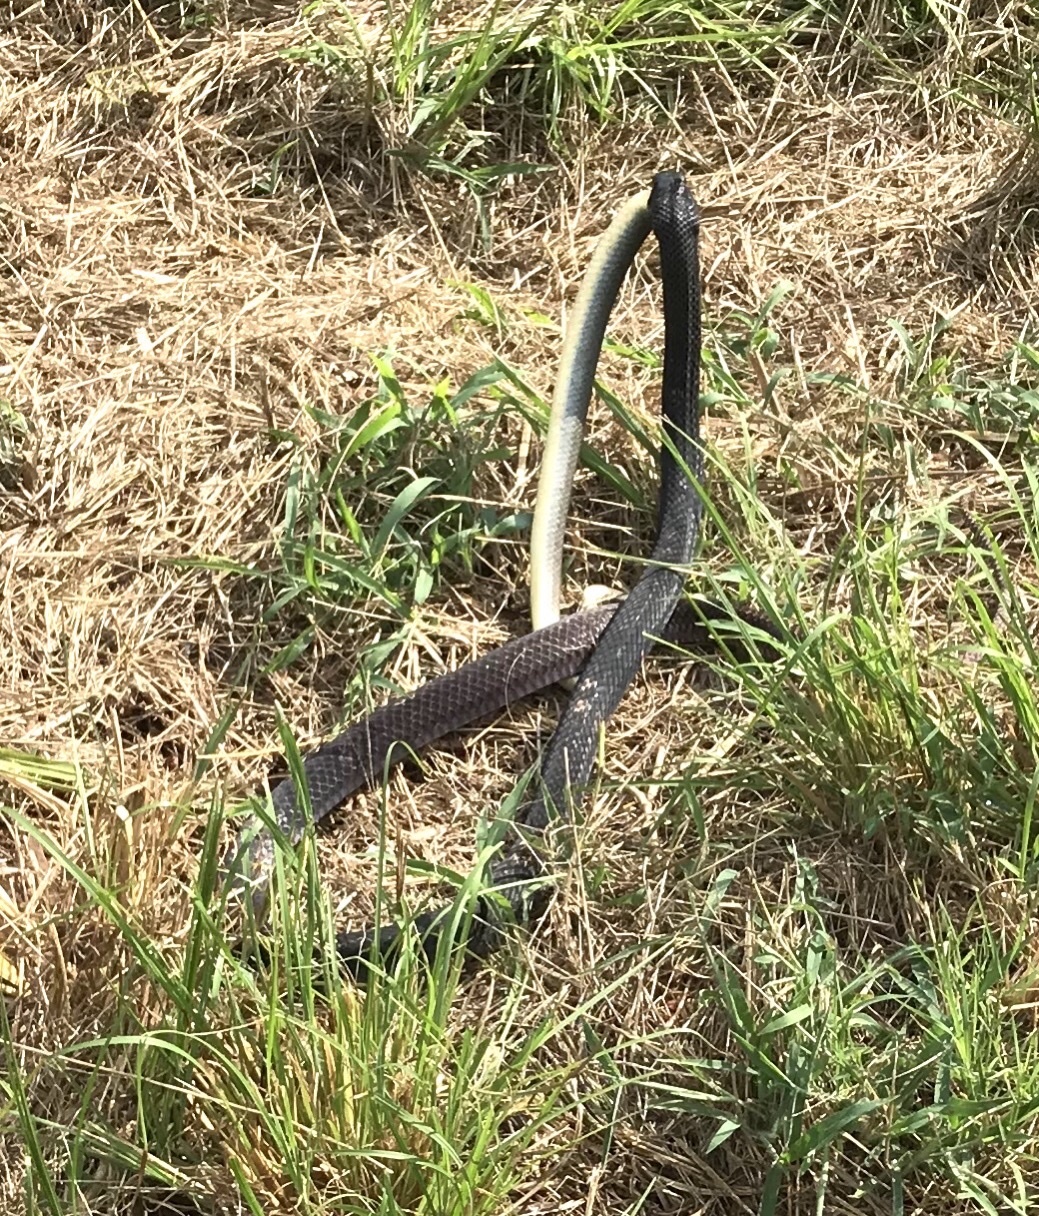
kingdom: Animalia
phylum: Chordata
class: Squamata
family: Colubridae
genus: Coluber
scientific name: Coluber constrictor
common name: Eastern racer
